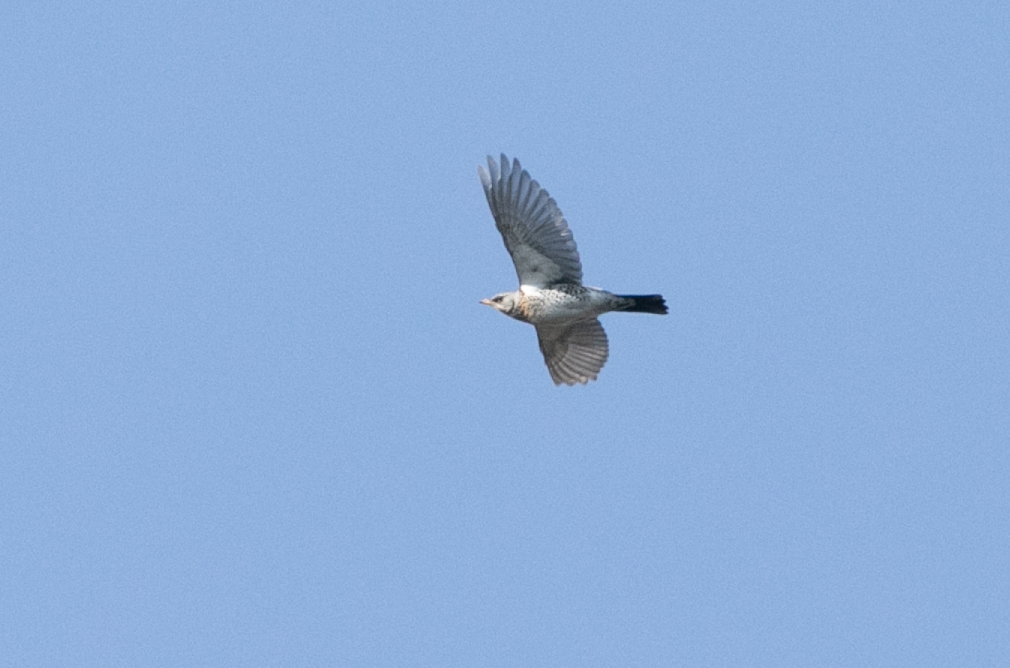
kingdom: Animalia
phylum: Chordata
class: Aves
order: Passeriformes
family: Turdidae
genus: Turdus
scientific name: Turdus pilaris
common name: Fieldfare
